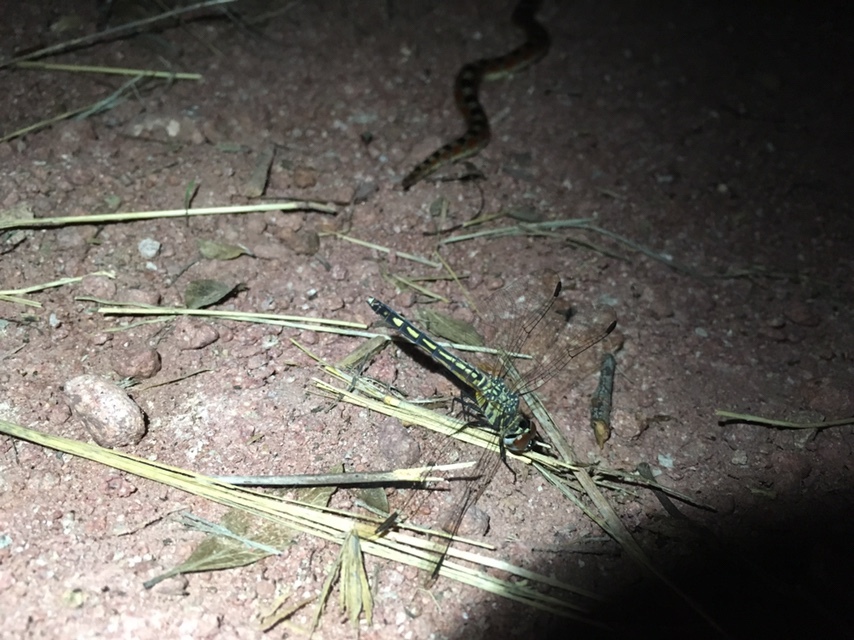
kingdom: Animalia
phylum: Arthropoda
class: Insecta
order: Odonata
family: Libellulidae
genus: Pachydiplax
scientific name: Pachydiplax longipennis
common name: Blue dasher
